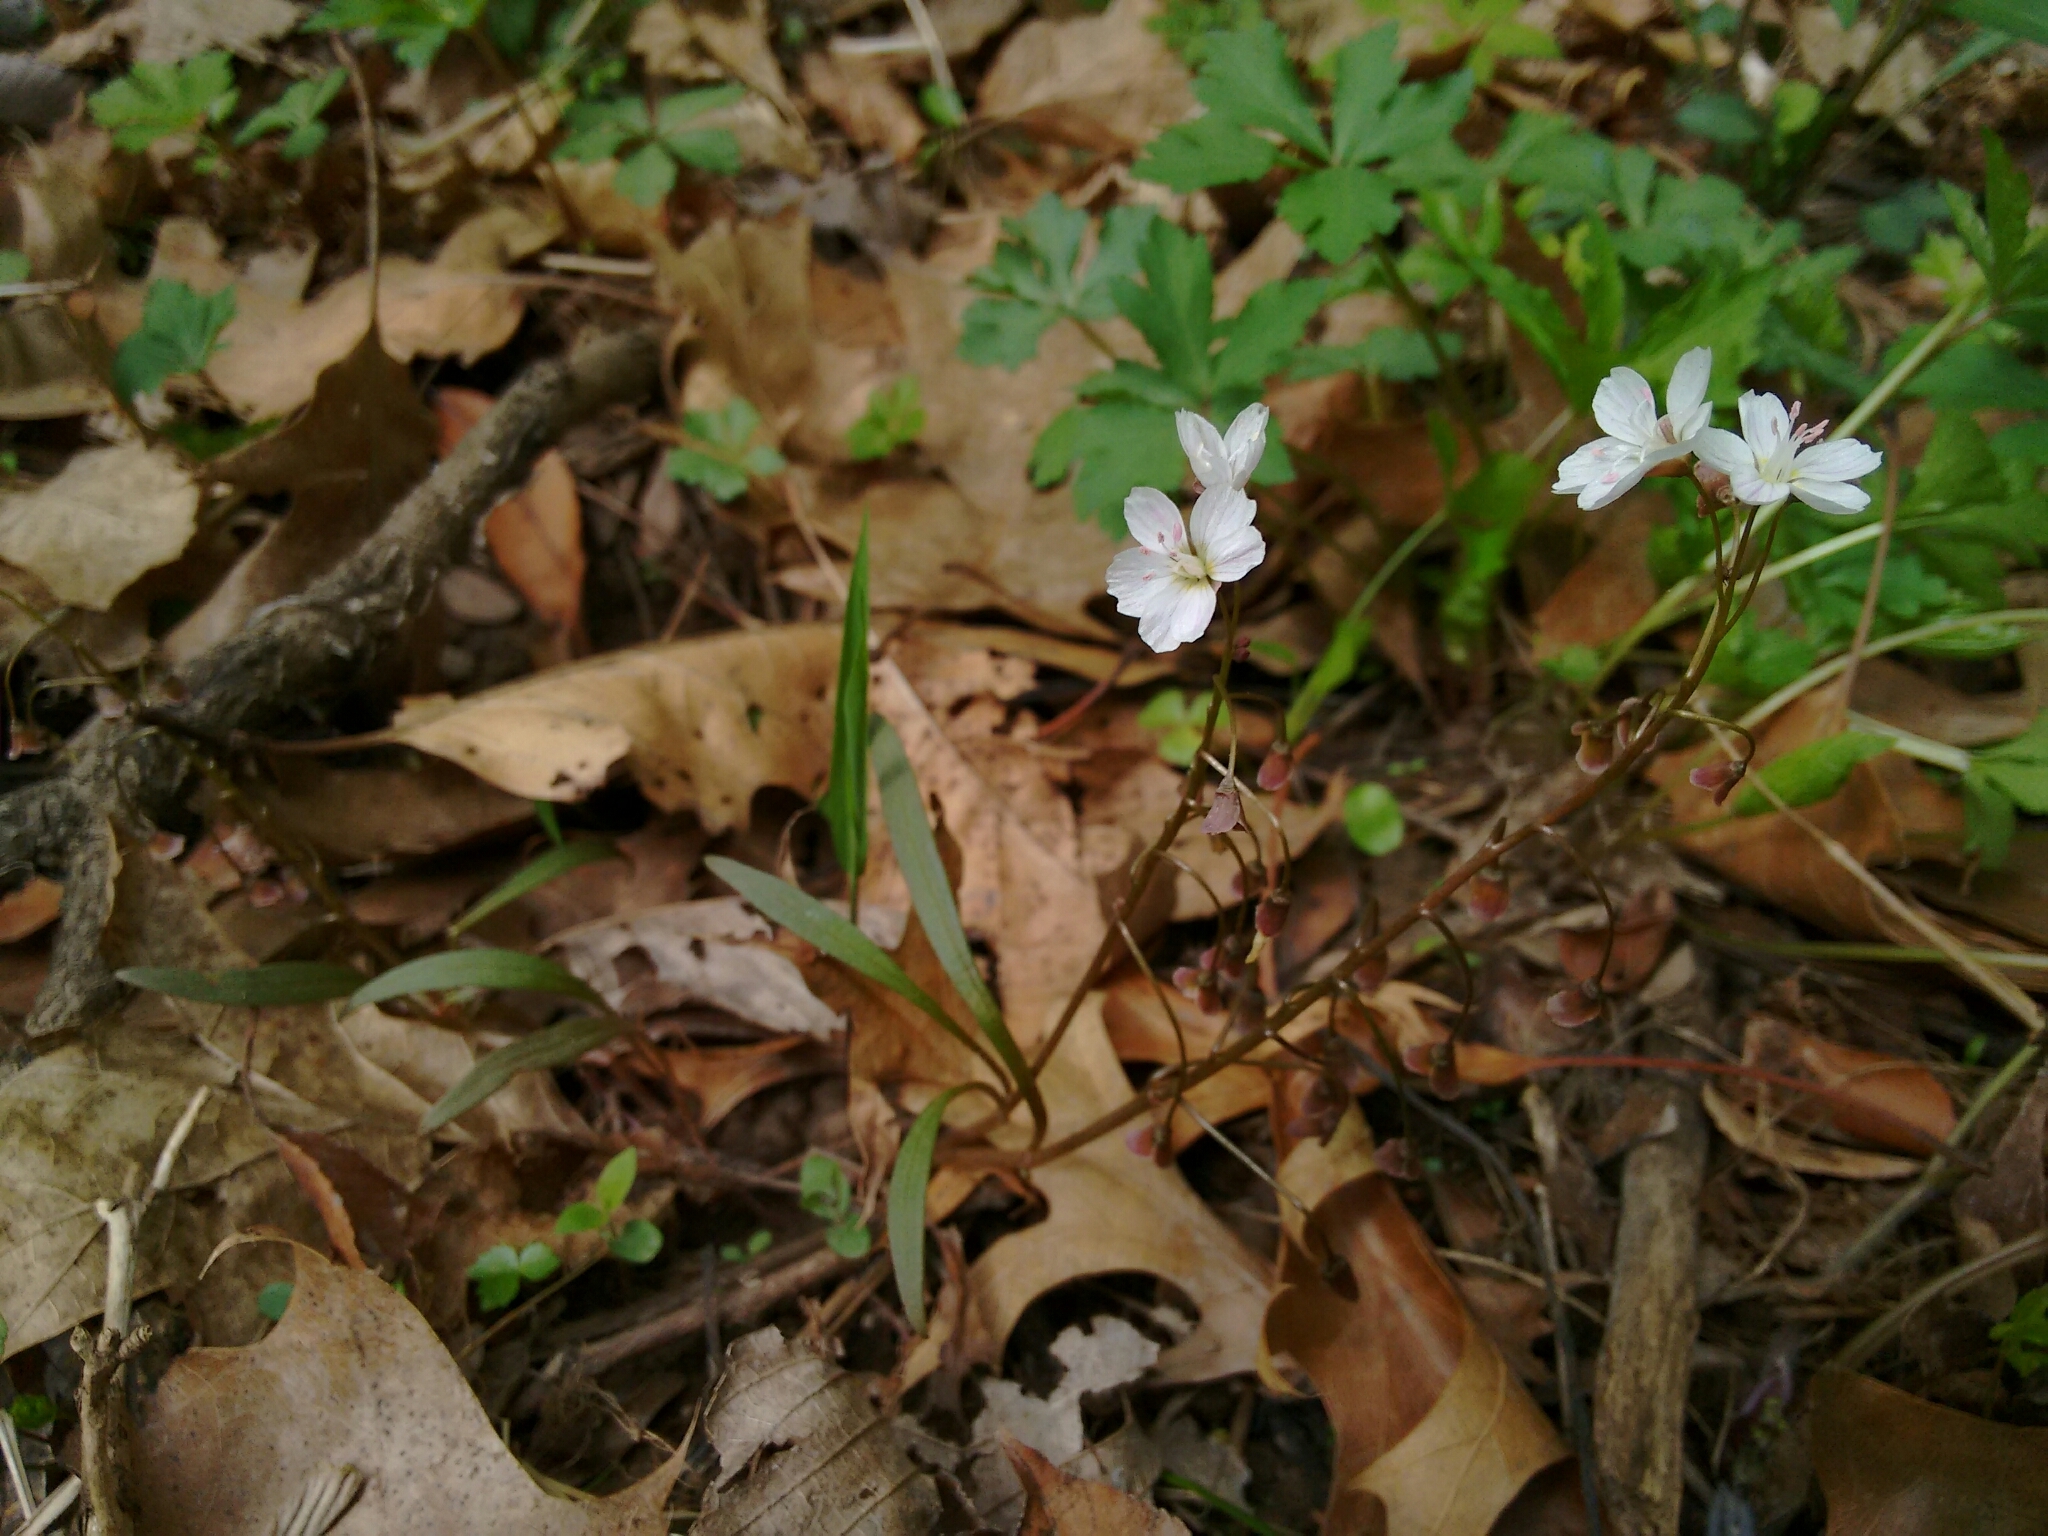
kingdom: Plantae
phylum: Tracheophyta
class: Magnoliopsida
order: Caryophyllales
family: Montiaceae
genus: Claytonia
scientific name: Claytonia virginica
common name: Virginia springbeauty
